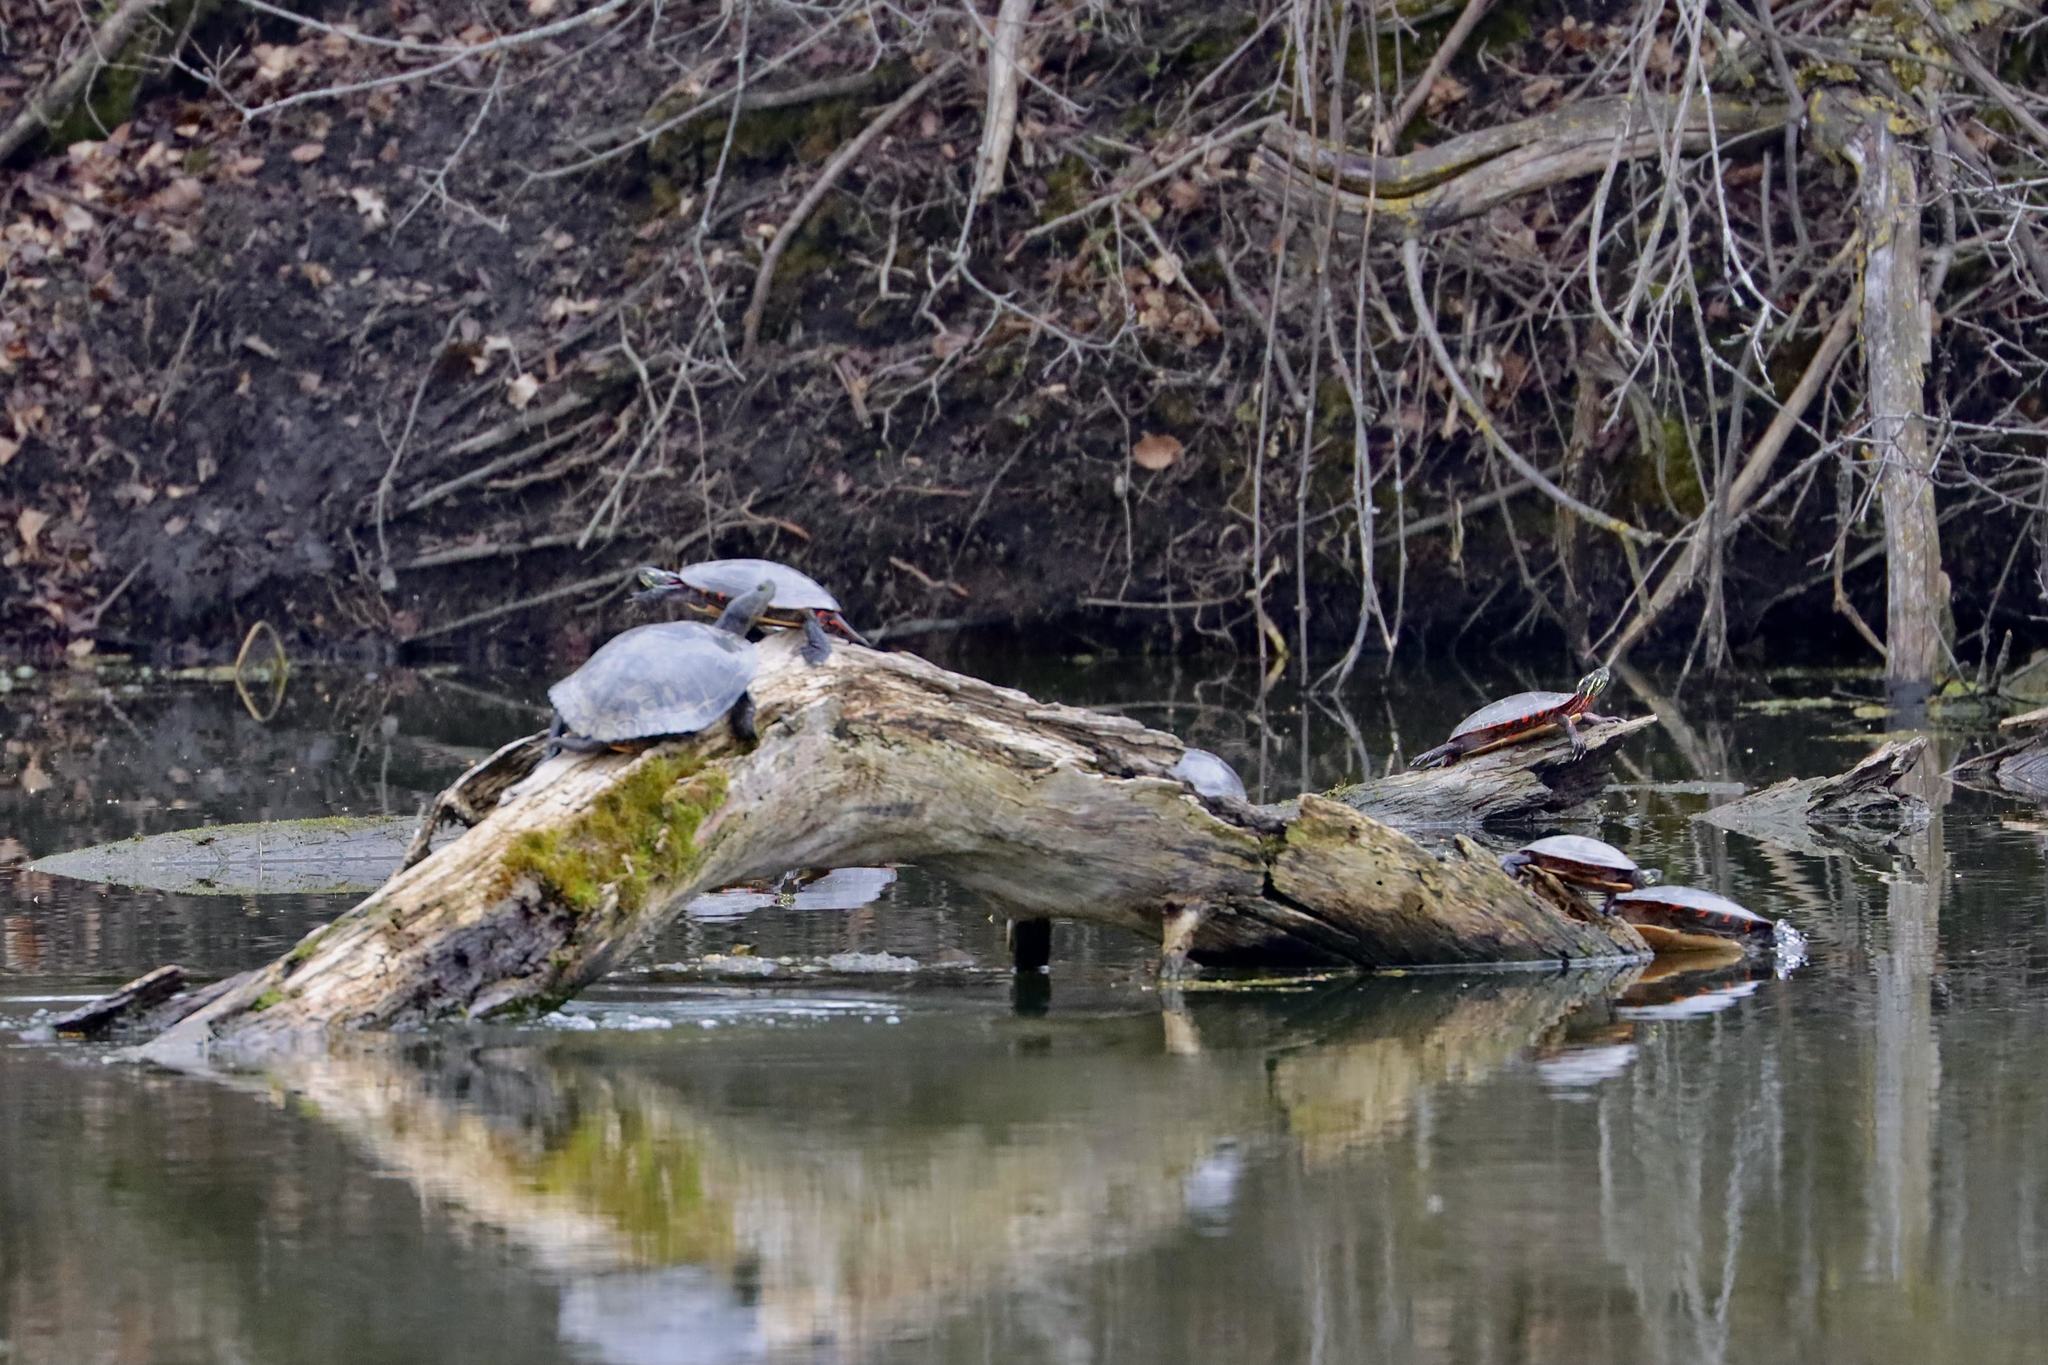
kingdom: Animalia
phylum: Chordata
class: Testudines
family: Emydidae
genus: Chrysemys
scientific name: Chrysemys picta
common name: Painted turtle
